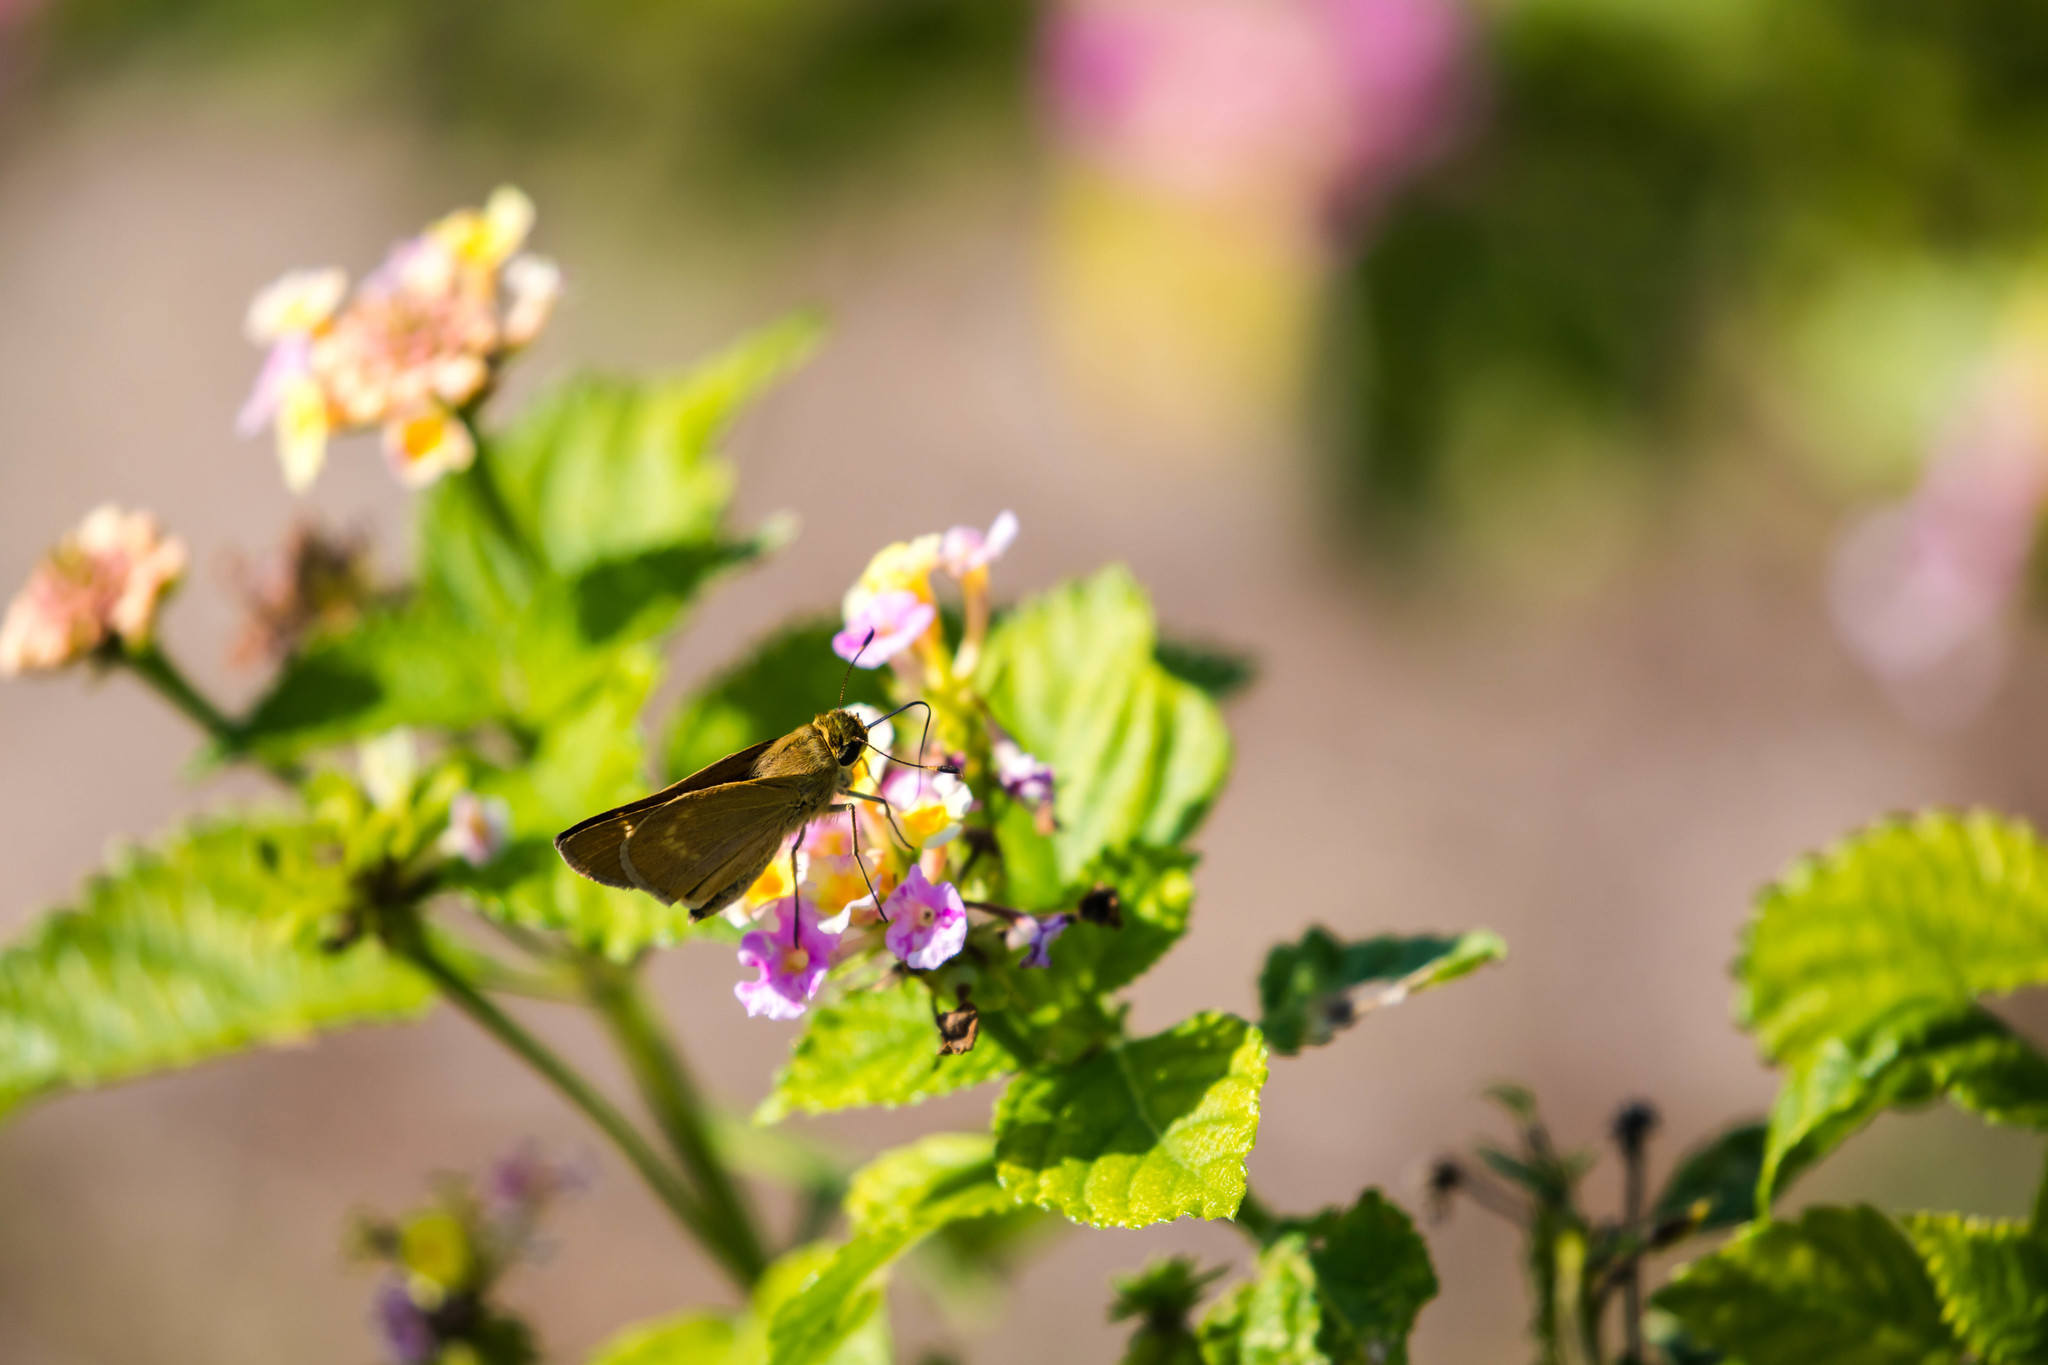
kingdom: Animalia
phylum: Arthropoda
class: Insecta
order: Lepidoptera
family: Hesperiidae
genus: Mellana
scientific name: Mellana eulogius
